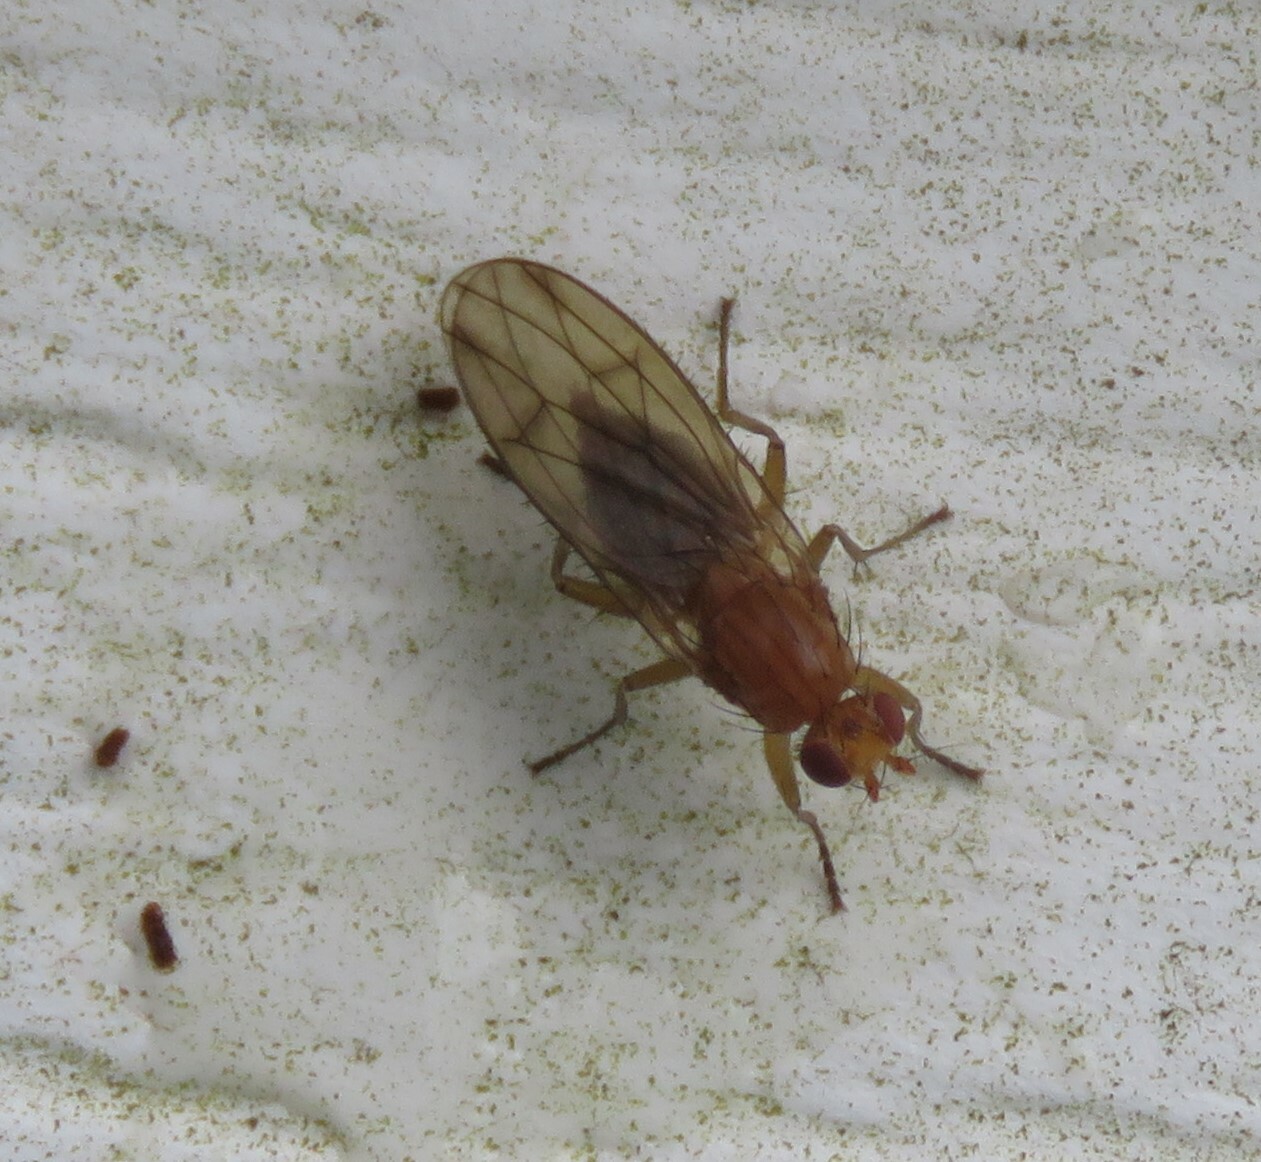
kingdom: Animalia
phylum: Arthropoda
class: Insecta
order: Diptera
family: Heleomyzidae
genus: Scoliocentra
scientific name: Scoliocentra flavotestacea
